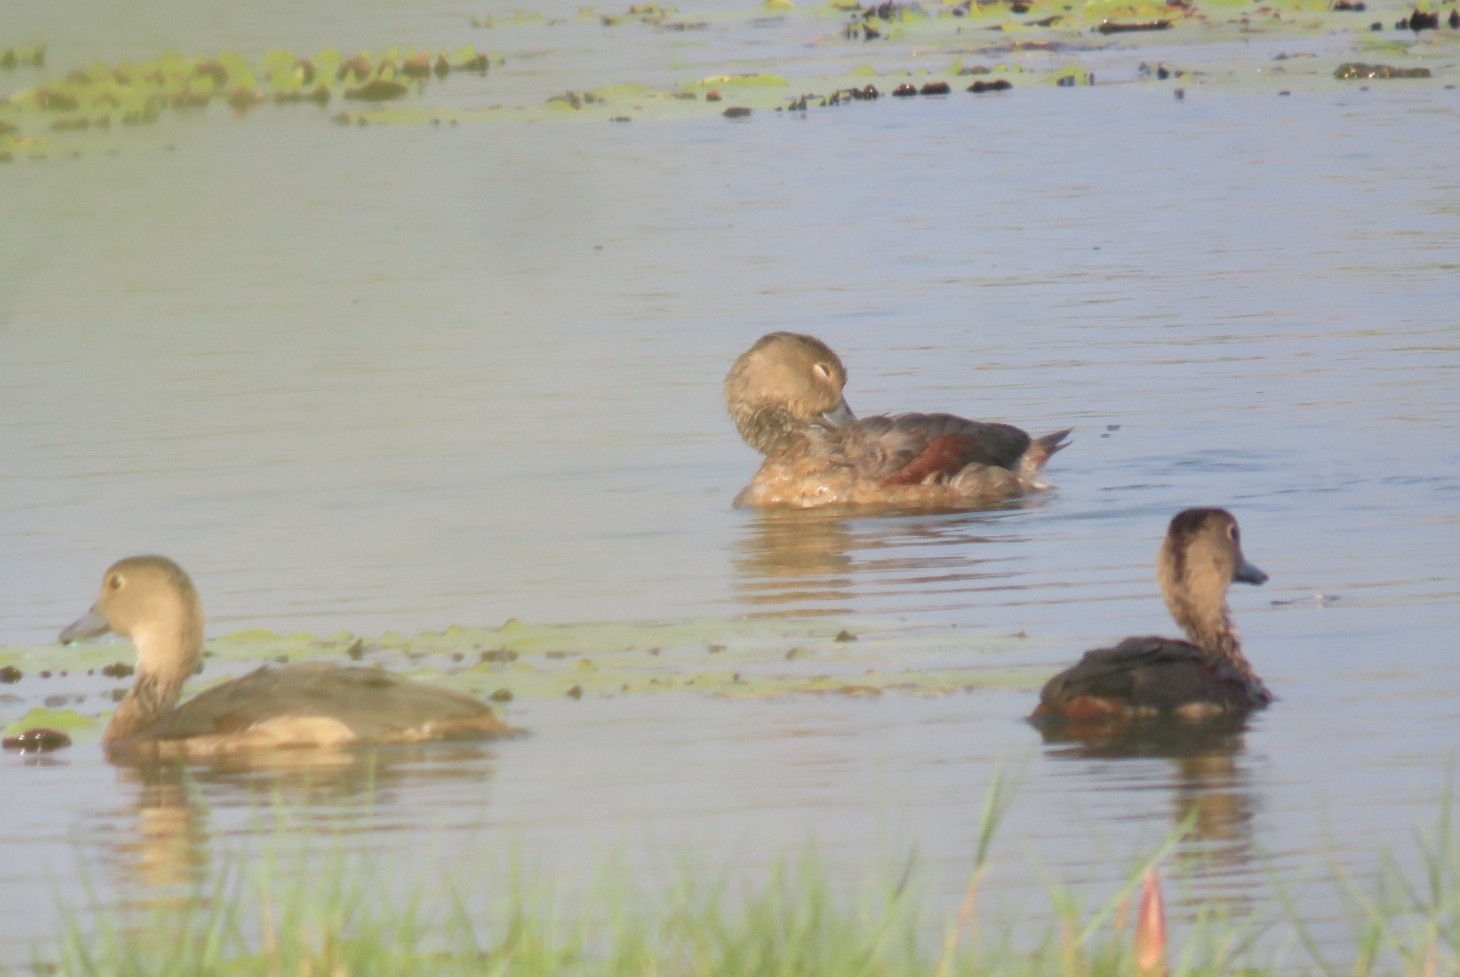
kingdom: Animalia
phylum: Chordata
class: Aves
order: Anseriformes
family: Anatidae
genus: Dendrocygna
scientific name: Dendrocygna javanica
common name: Lesser whistling-duck
